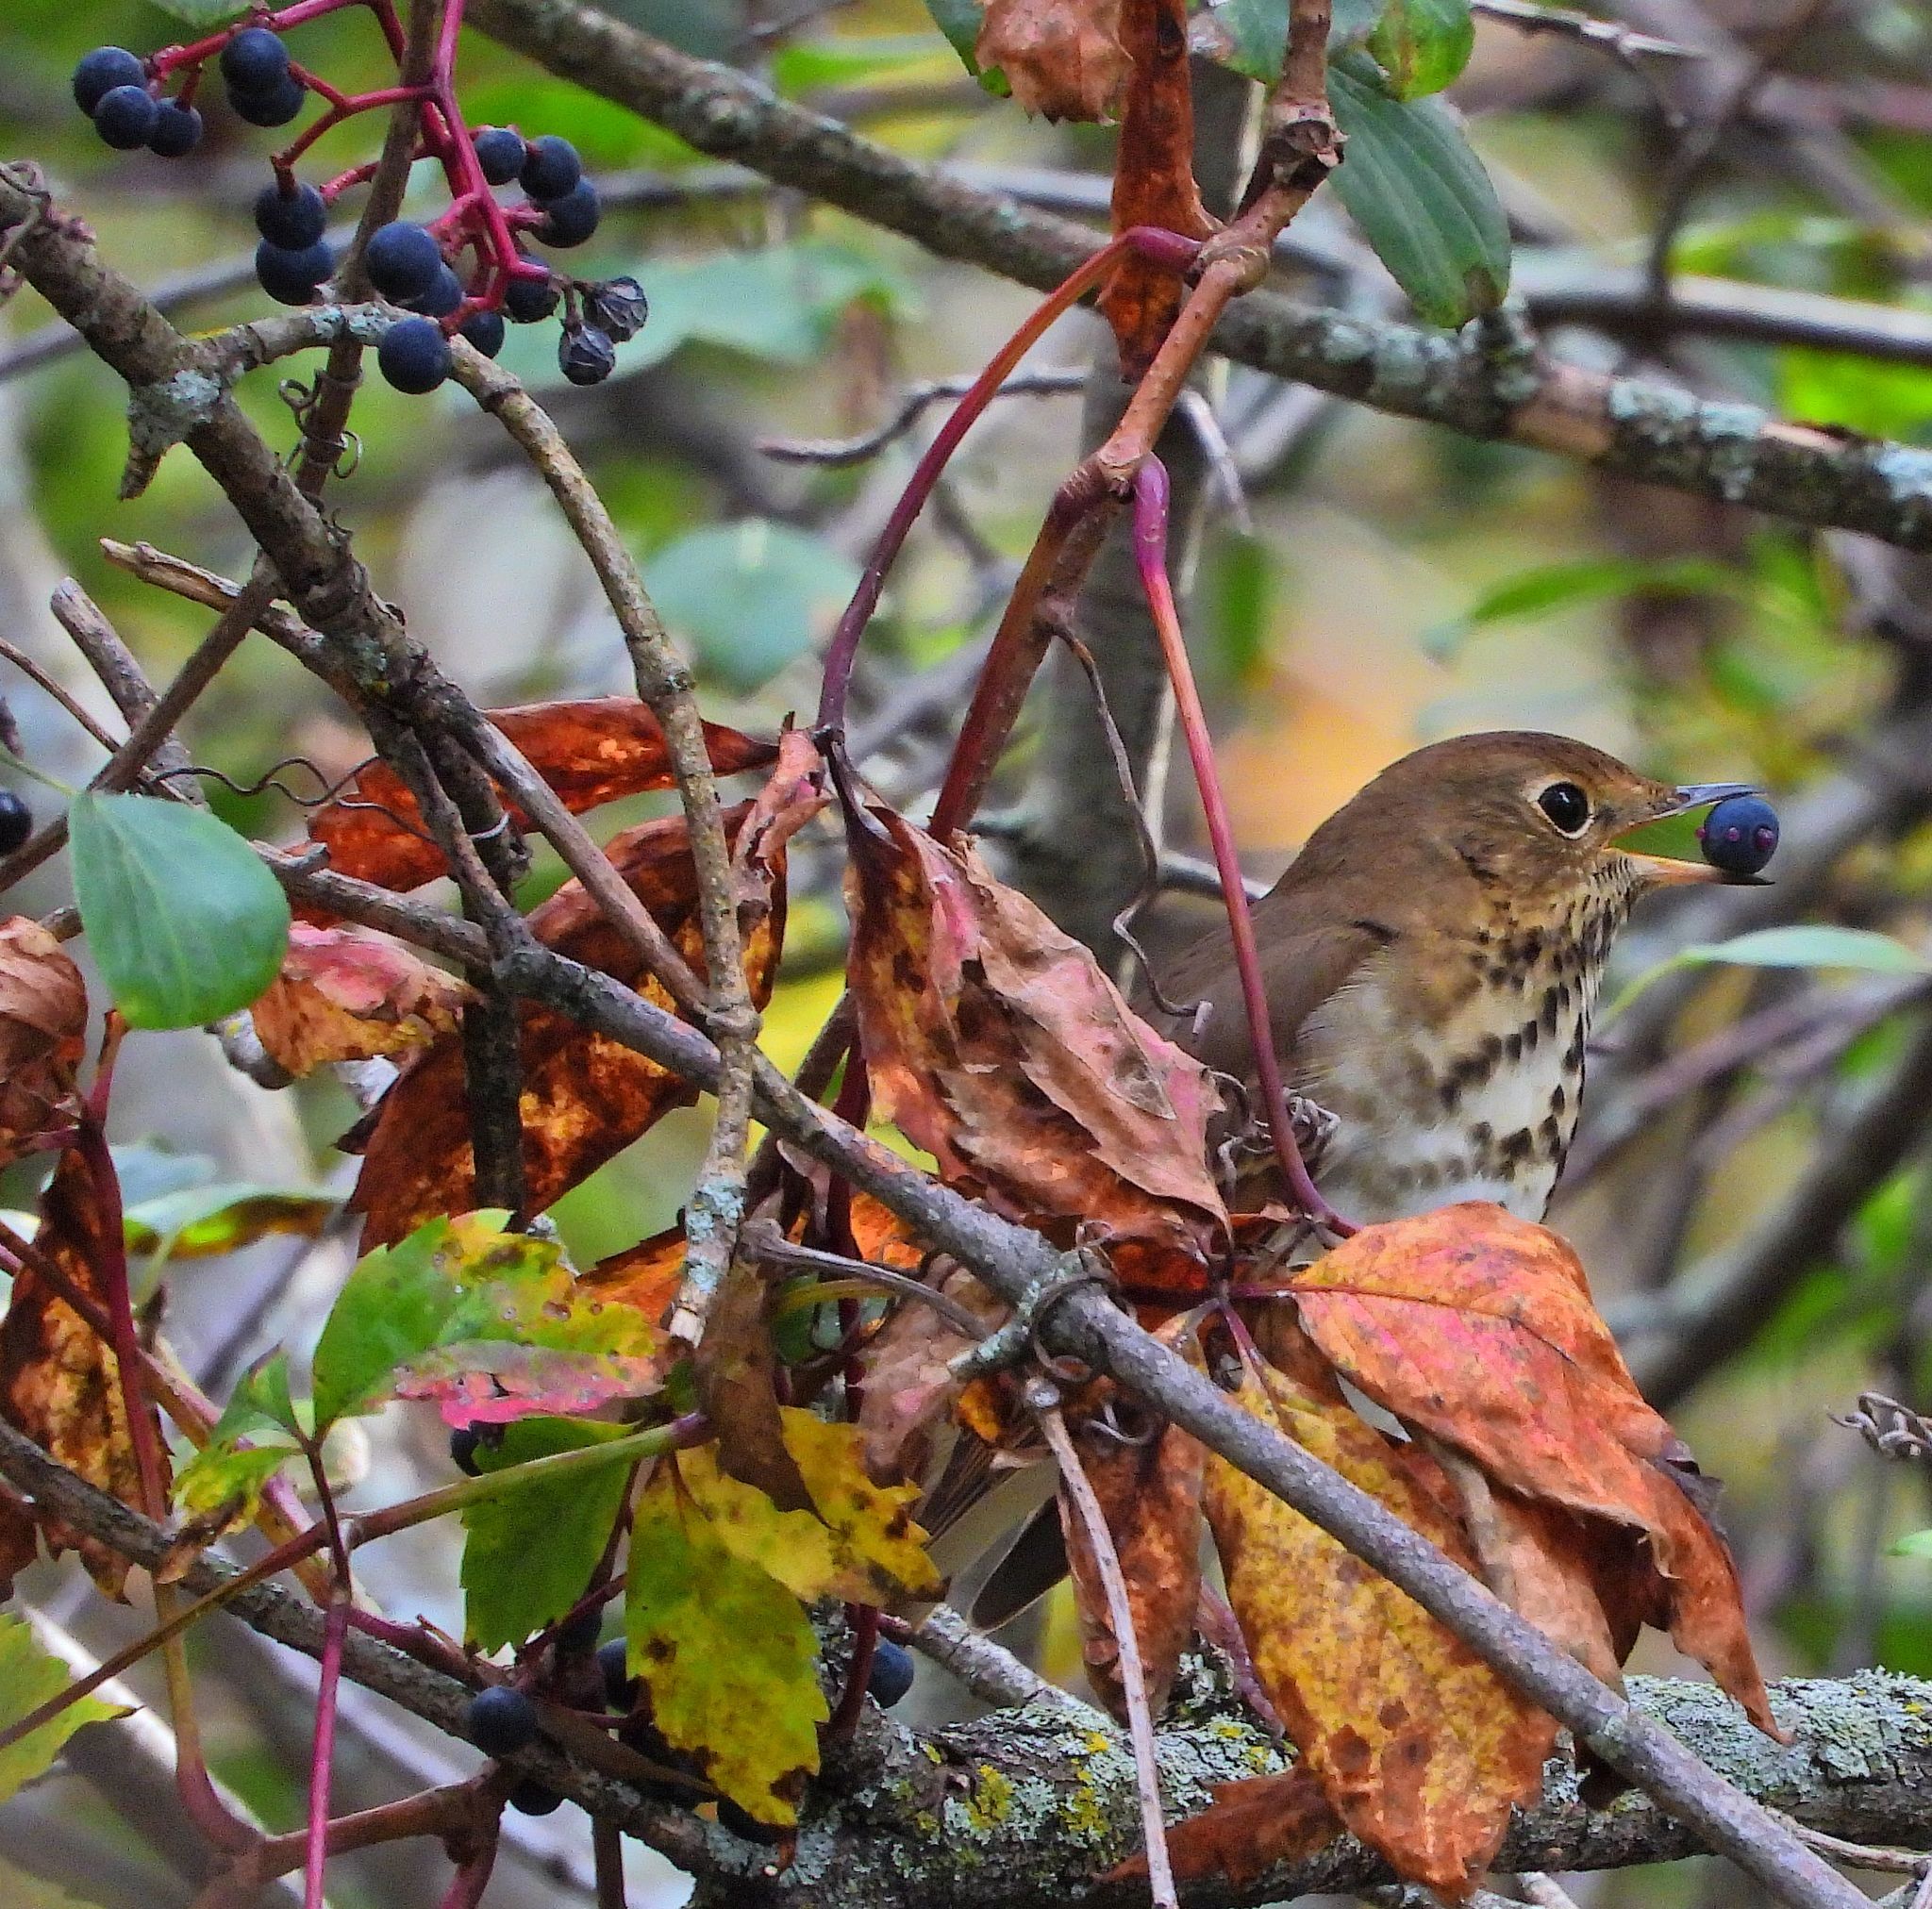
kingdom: Animalia
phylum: Chordata
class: Aves
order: Passeriformes
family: Turdidae
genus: Catharus
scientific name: Catharus guttatus
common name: Hermit thrush
